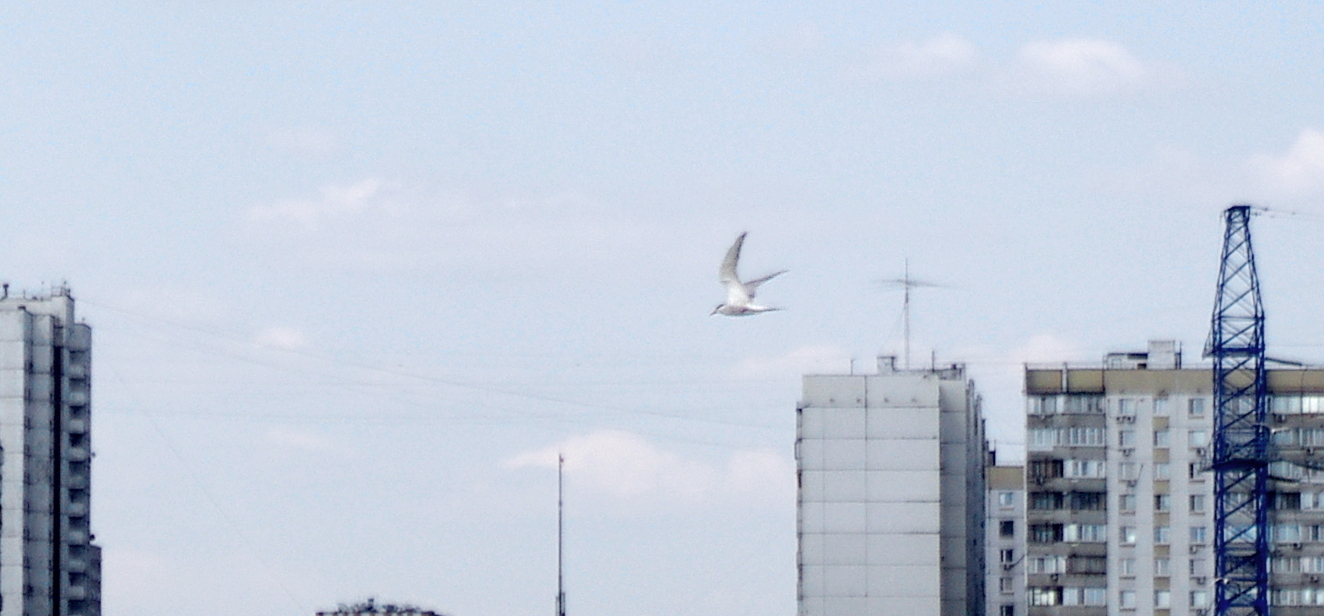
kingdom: Animalia
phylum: Chordata
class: Aves
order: Charadriiformes
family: Laridae
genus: Sterna
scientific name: Sterna hirundo
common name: Common tern
